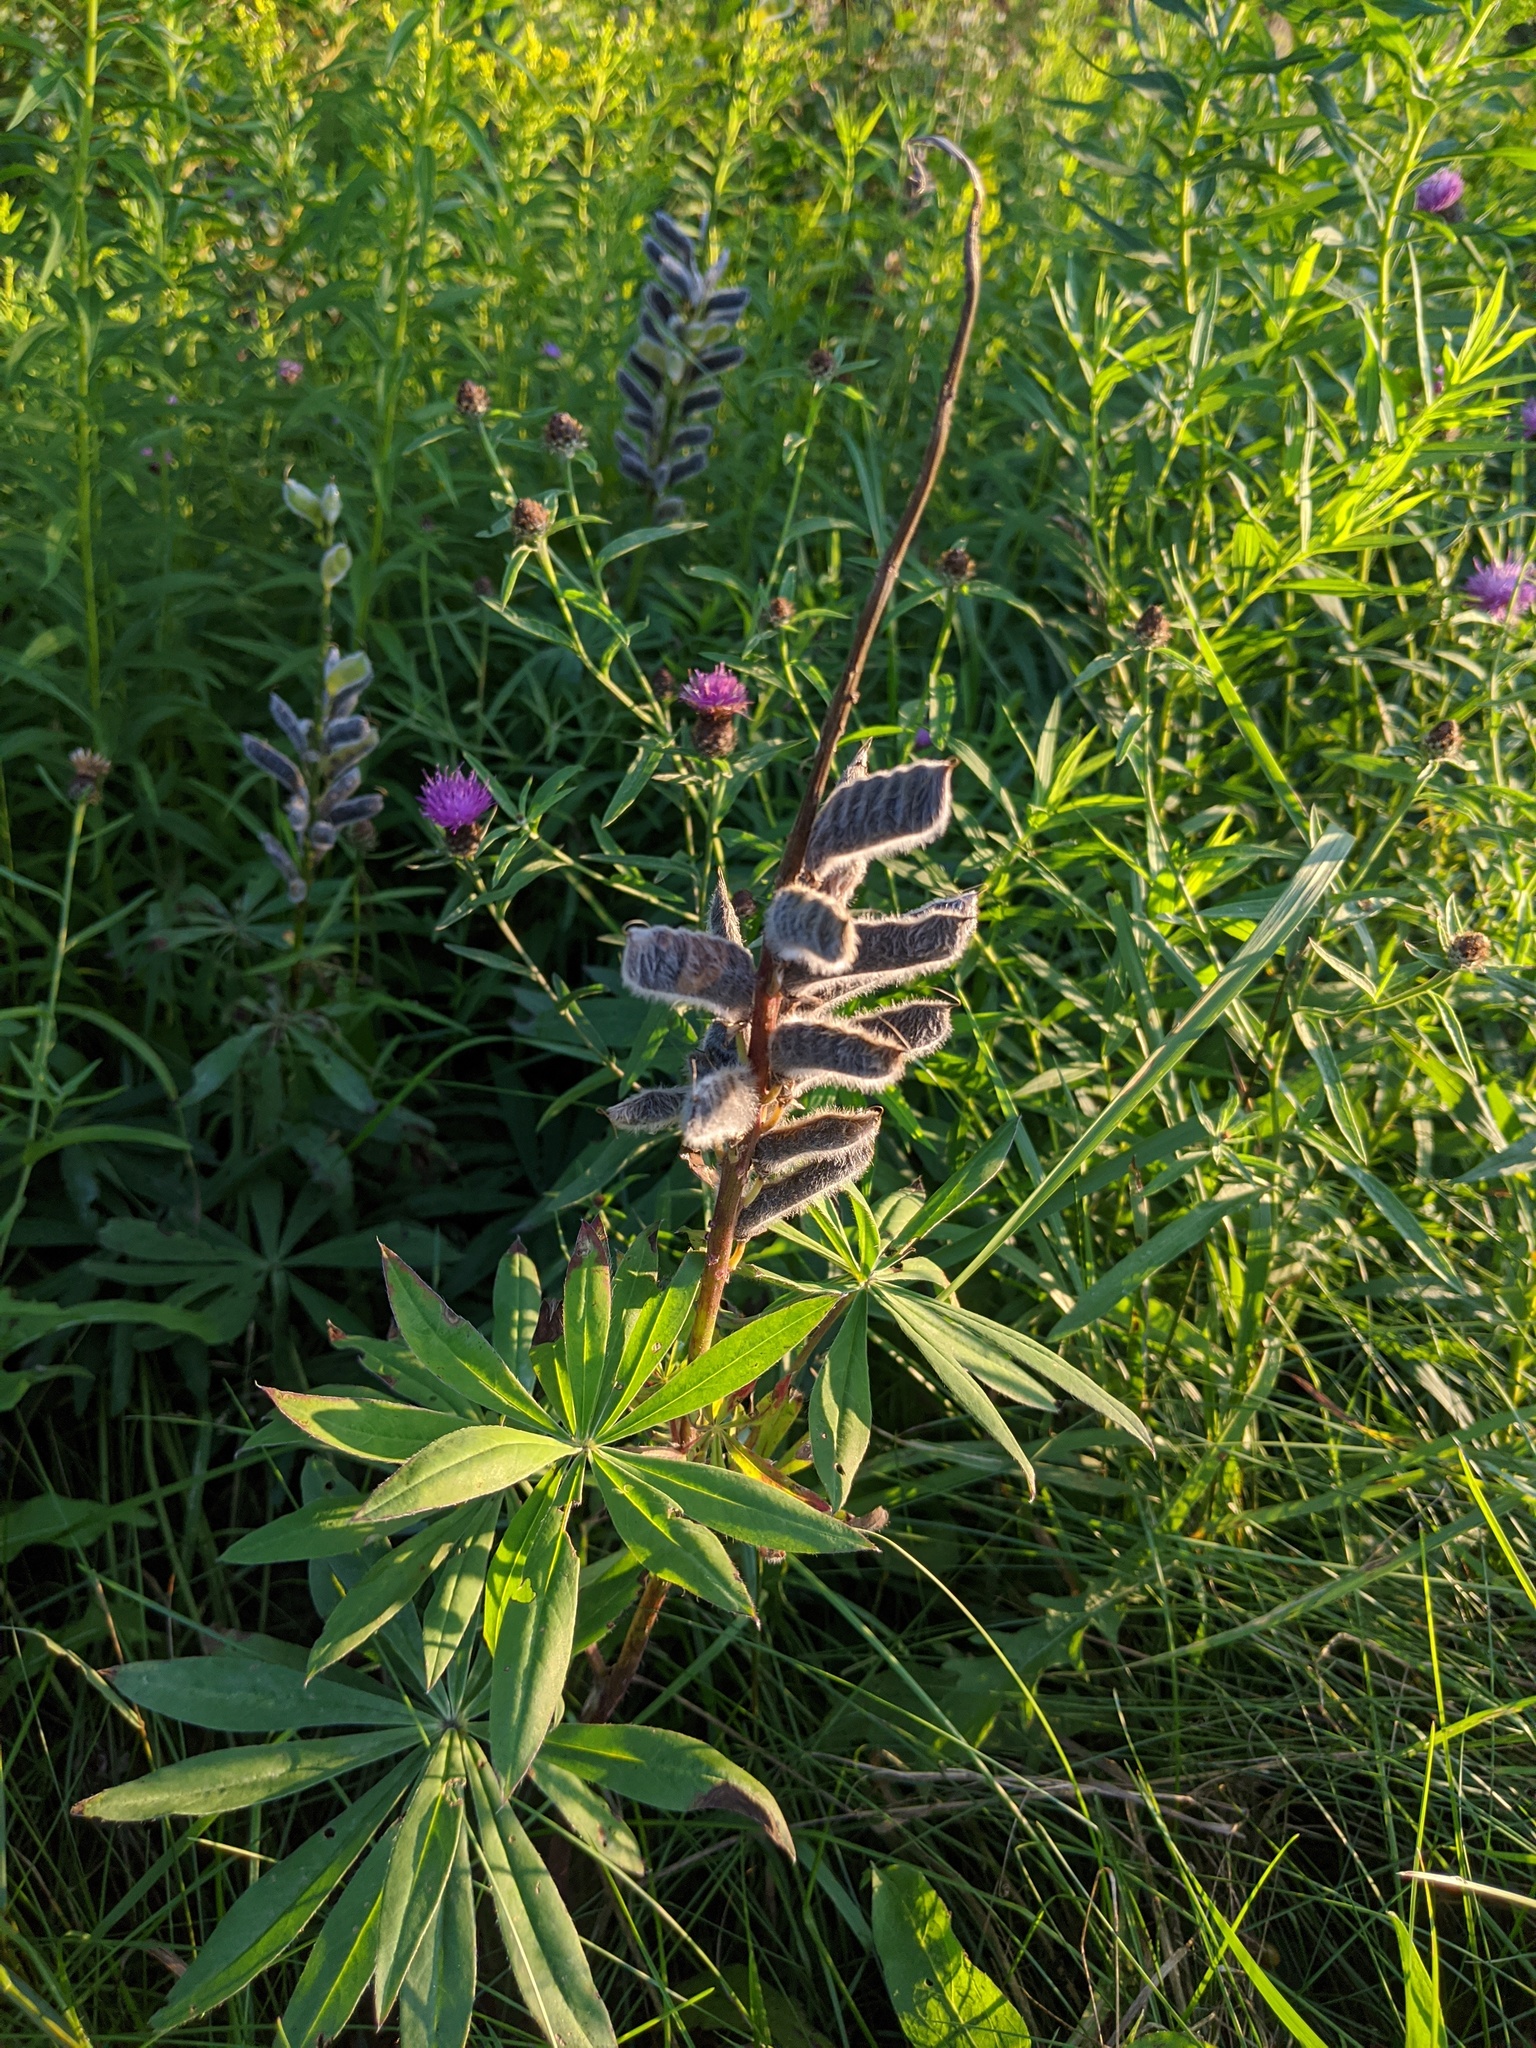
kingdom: Plantae
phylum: Tracheophyta
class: Magnoliopsida
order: Fabales
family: Fabaceae
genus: Lupinus
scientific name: Lupinus polyphyllus
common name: Garden lupin
